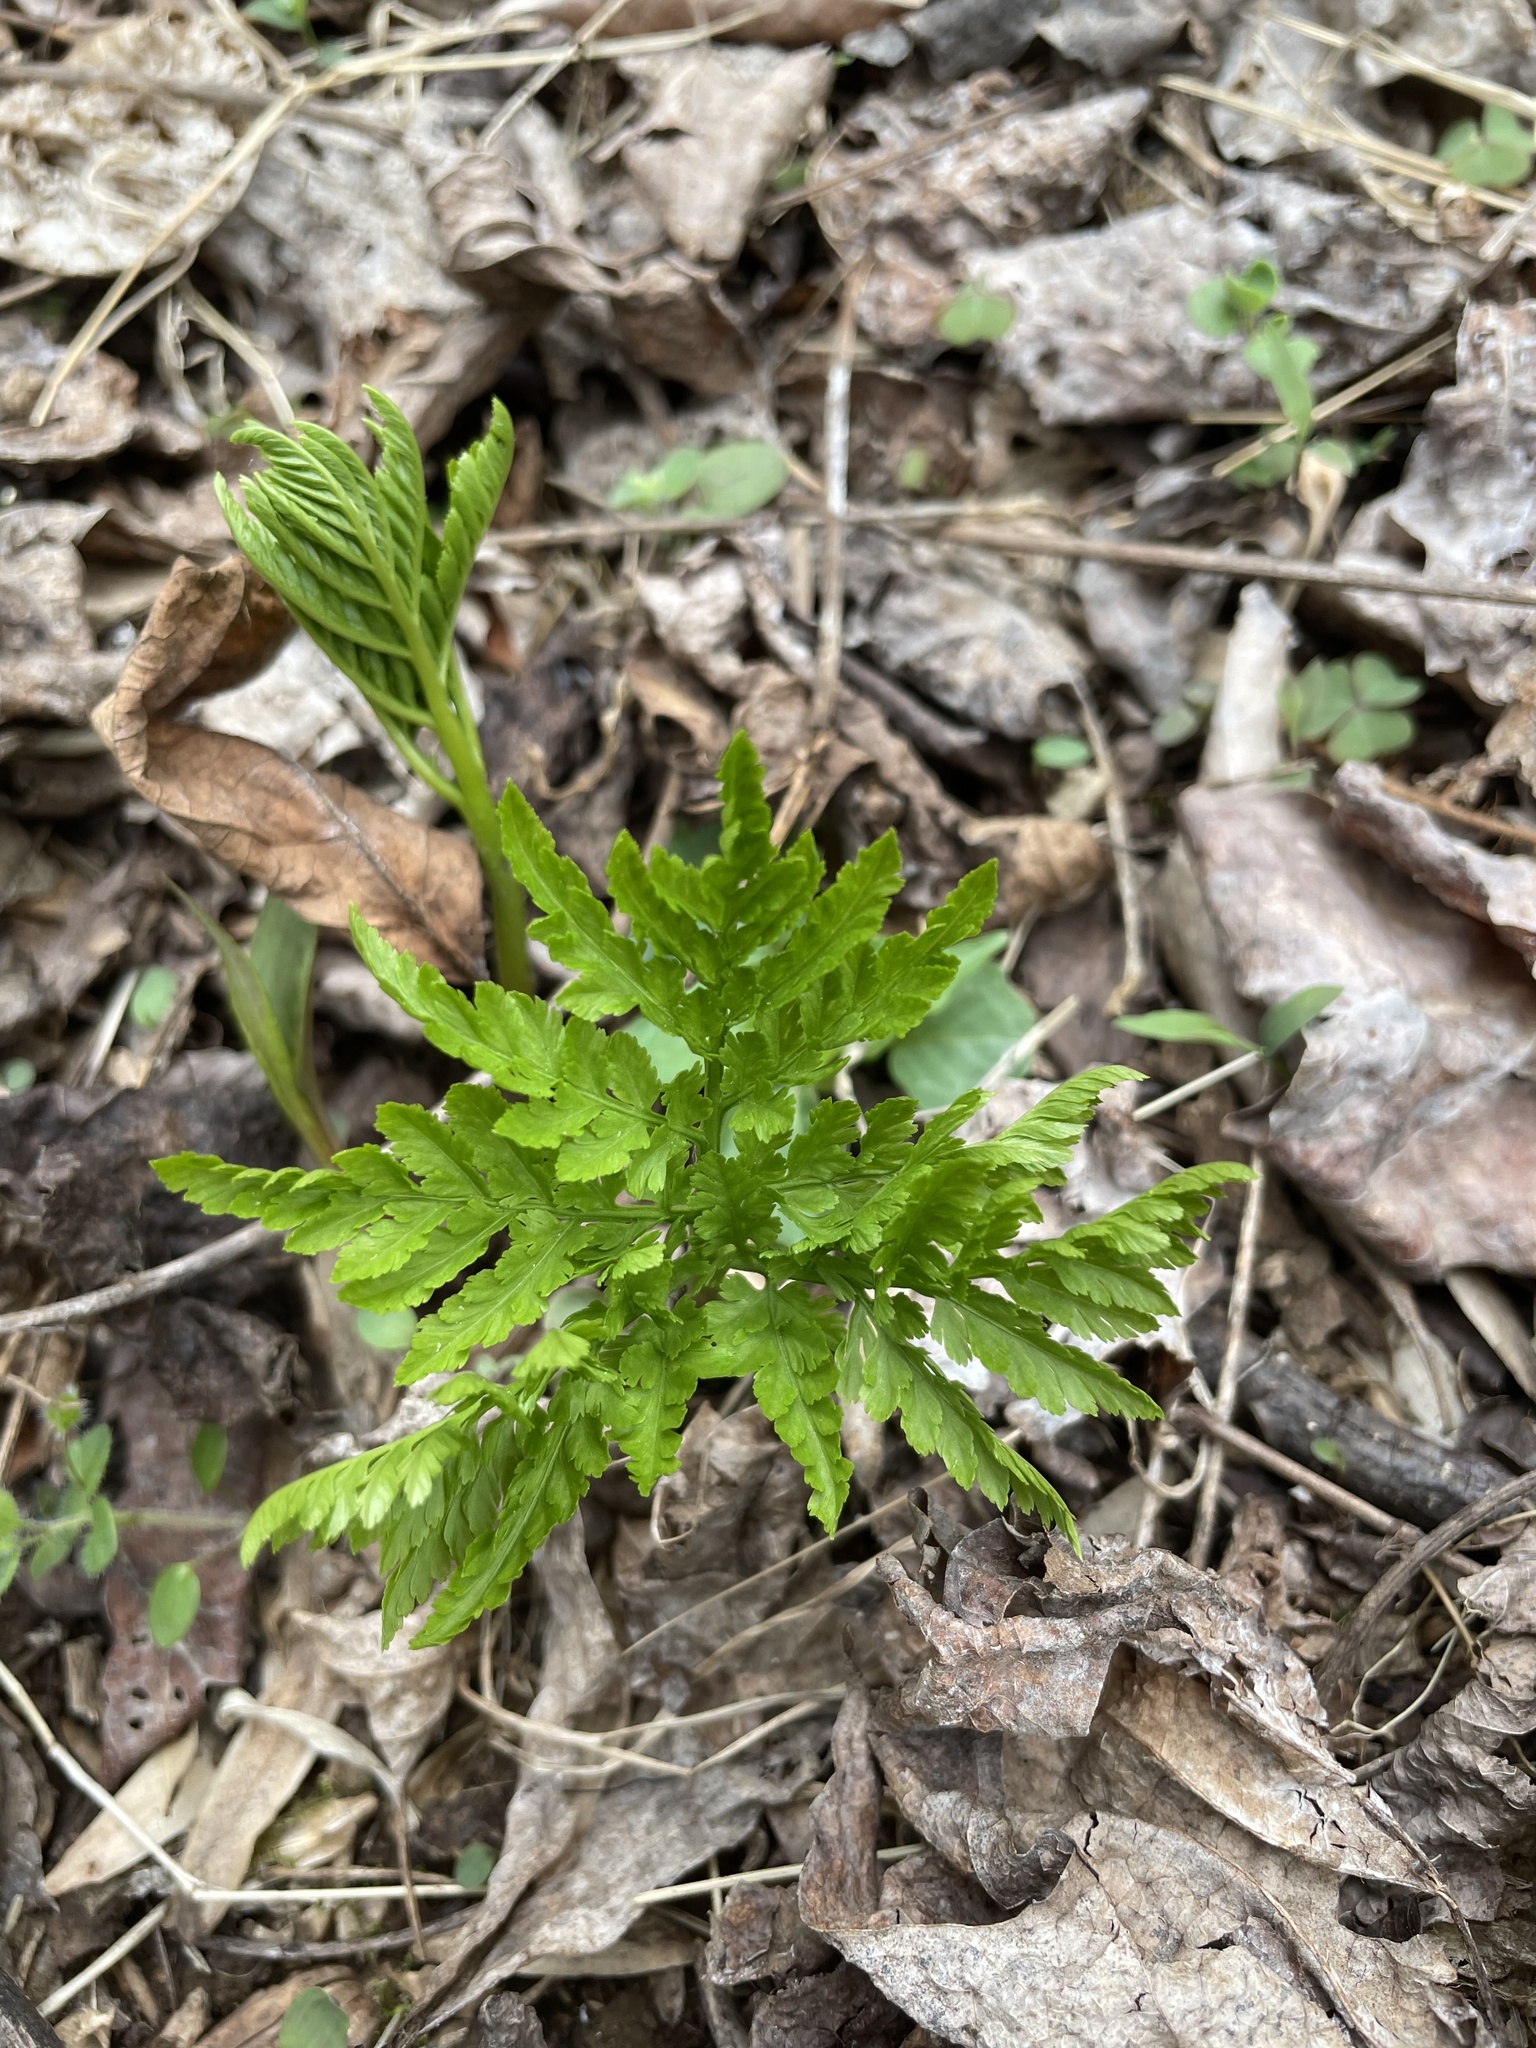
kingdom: Plantae
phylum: Tracheophyta
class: Polypodiopsida
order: Ophioglossales
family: Ophioglossaceae
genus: Botrypus
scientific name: Botrypus virginianus
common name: Common grapefern
